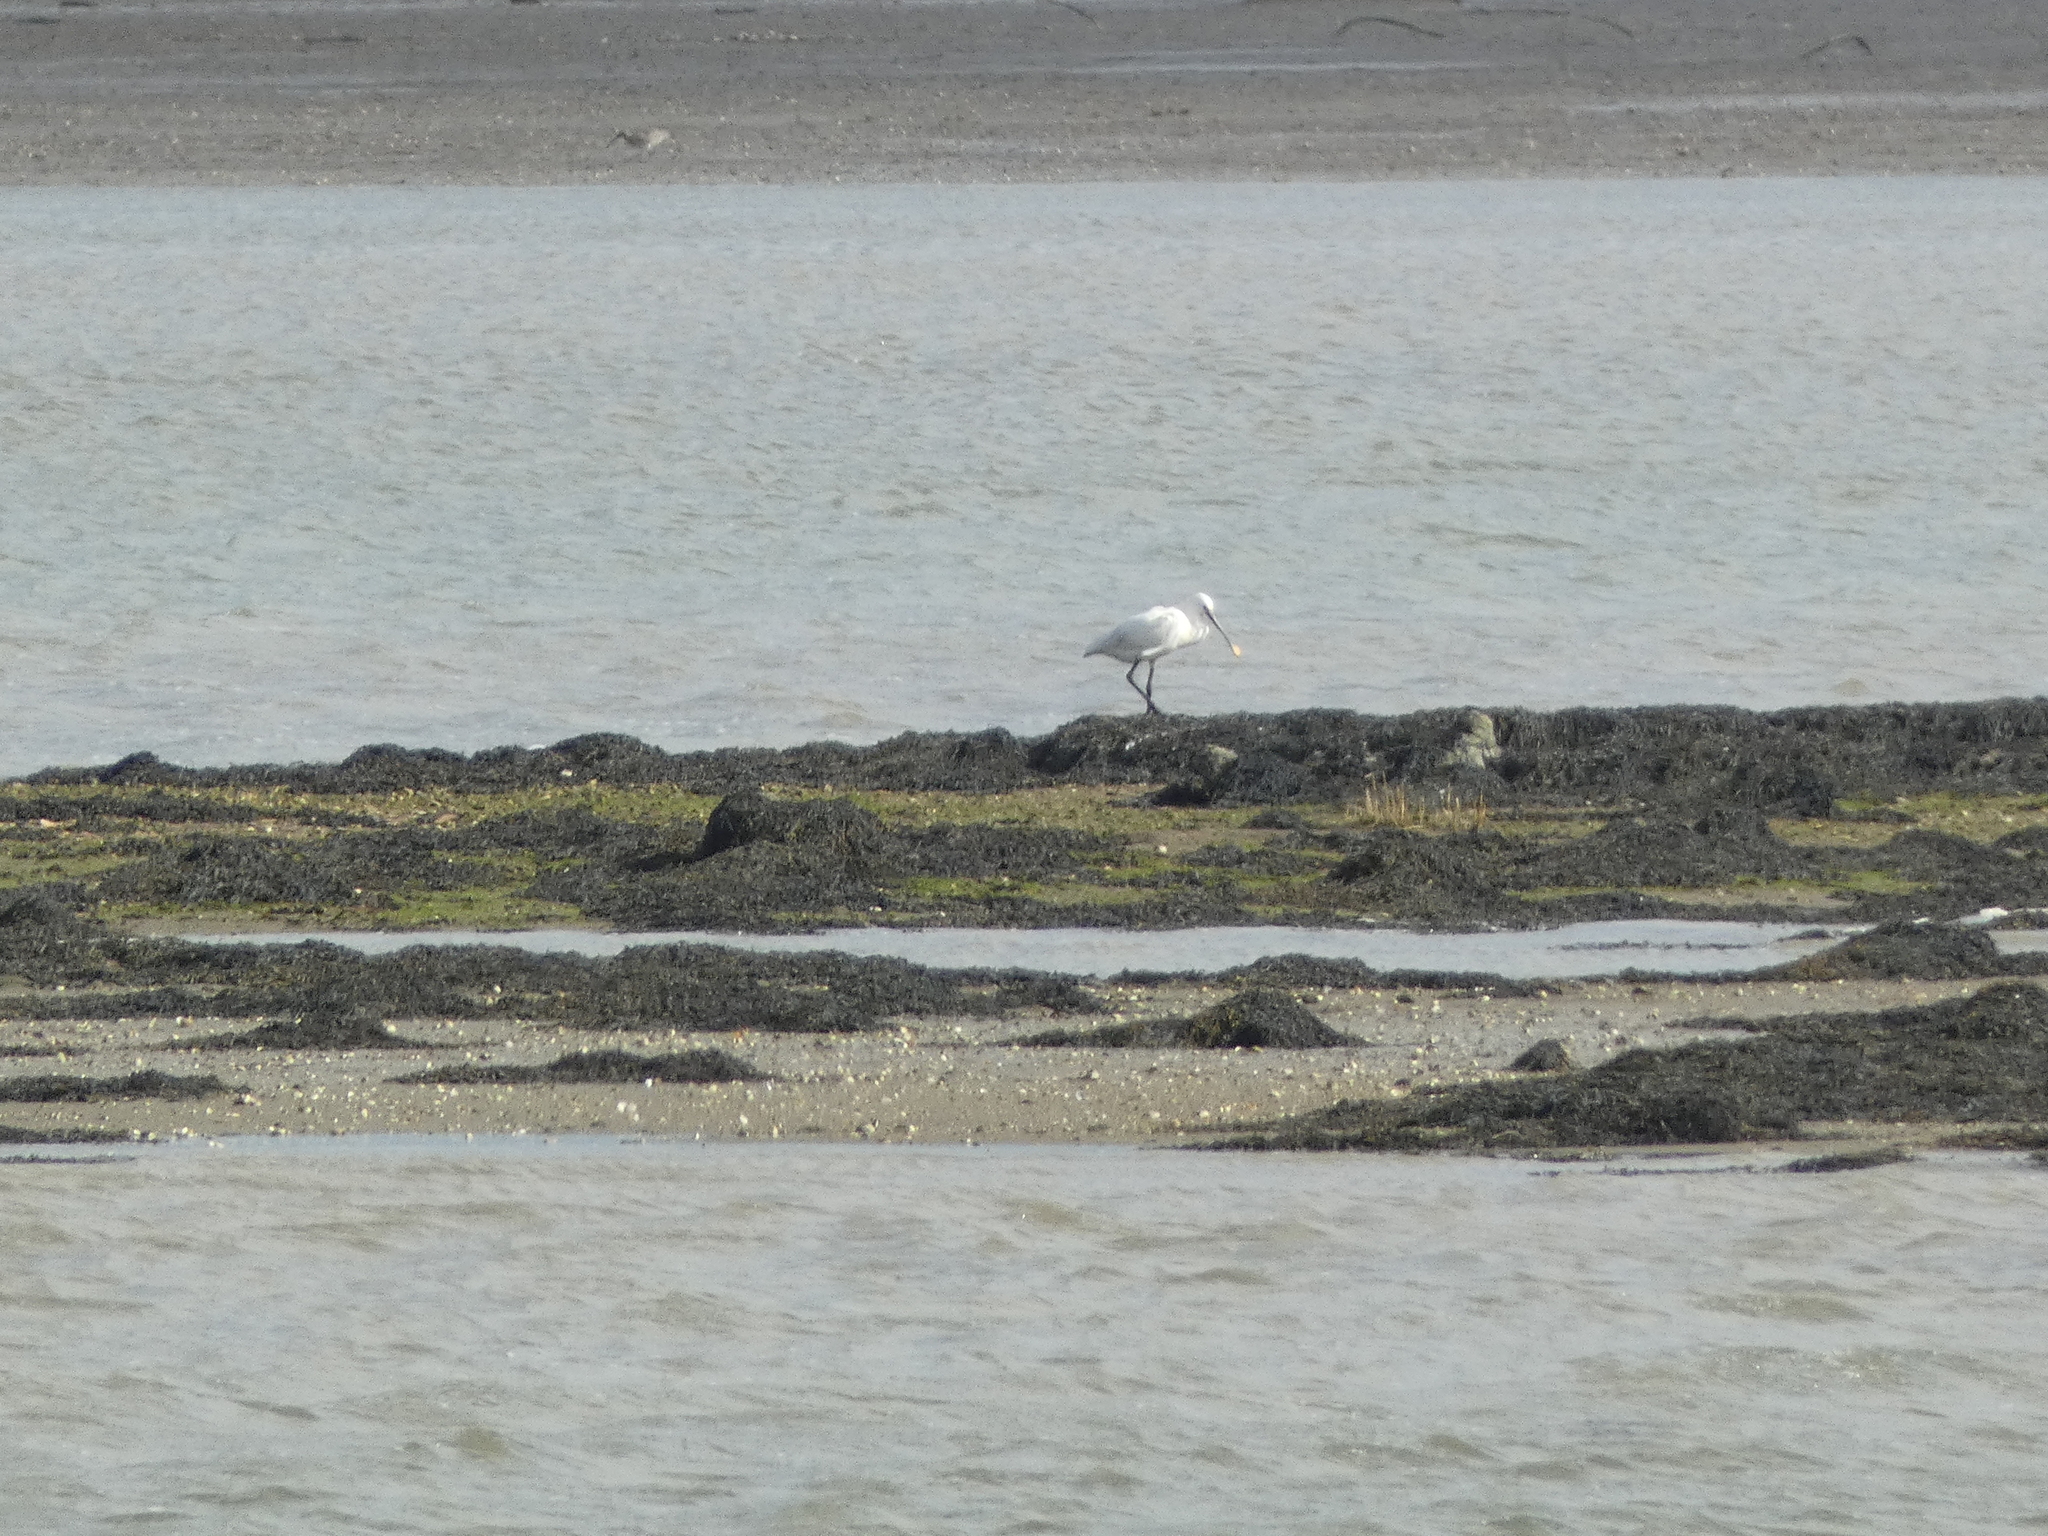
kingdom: Animalia
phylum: Chordata
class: Aves
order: Pelecaniformes
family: Threskiornithidae
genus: Platalea
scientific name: Platalea leucorodia
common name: Eurasian spoonbill
